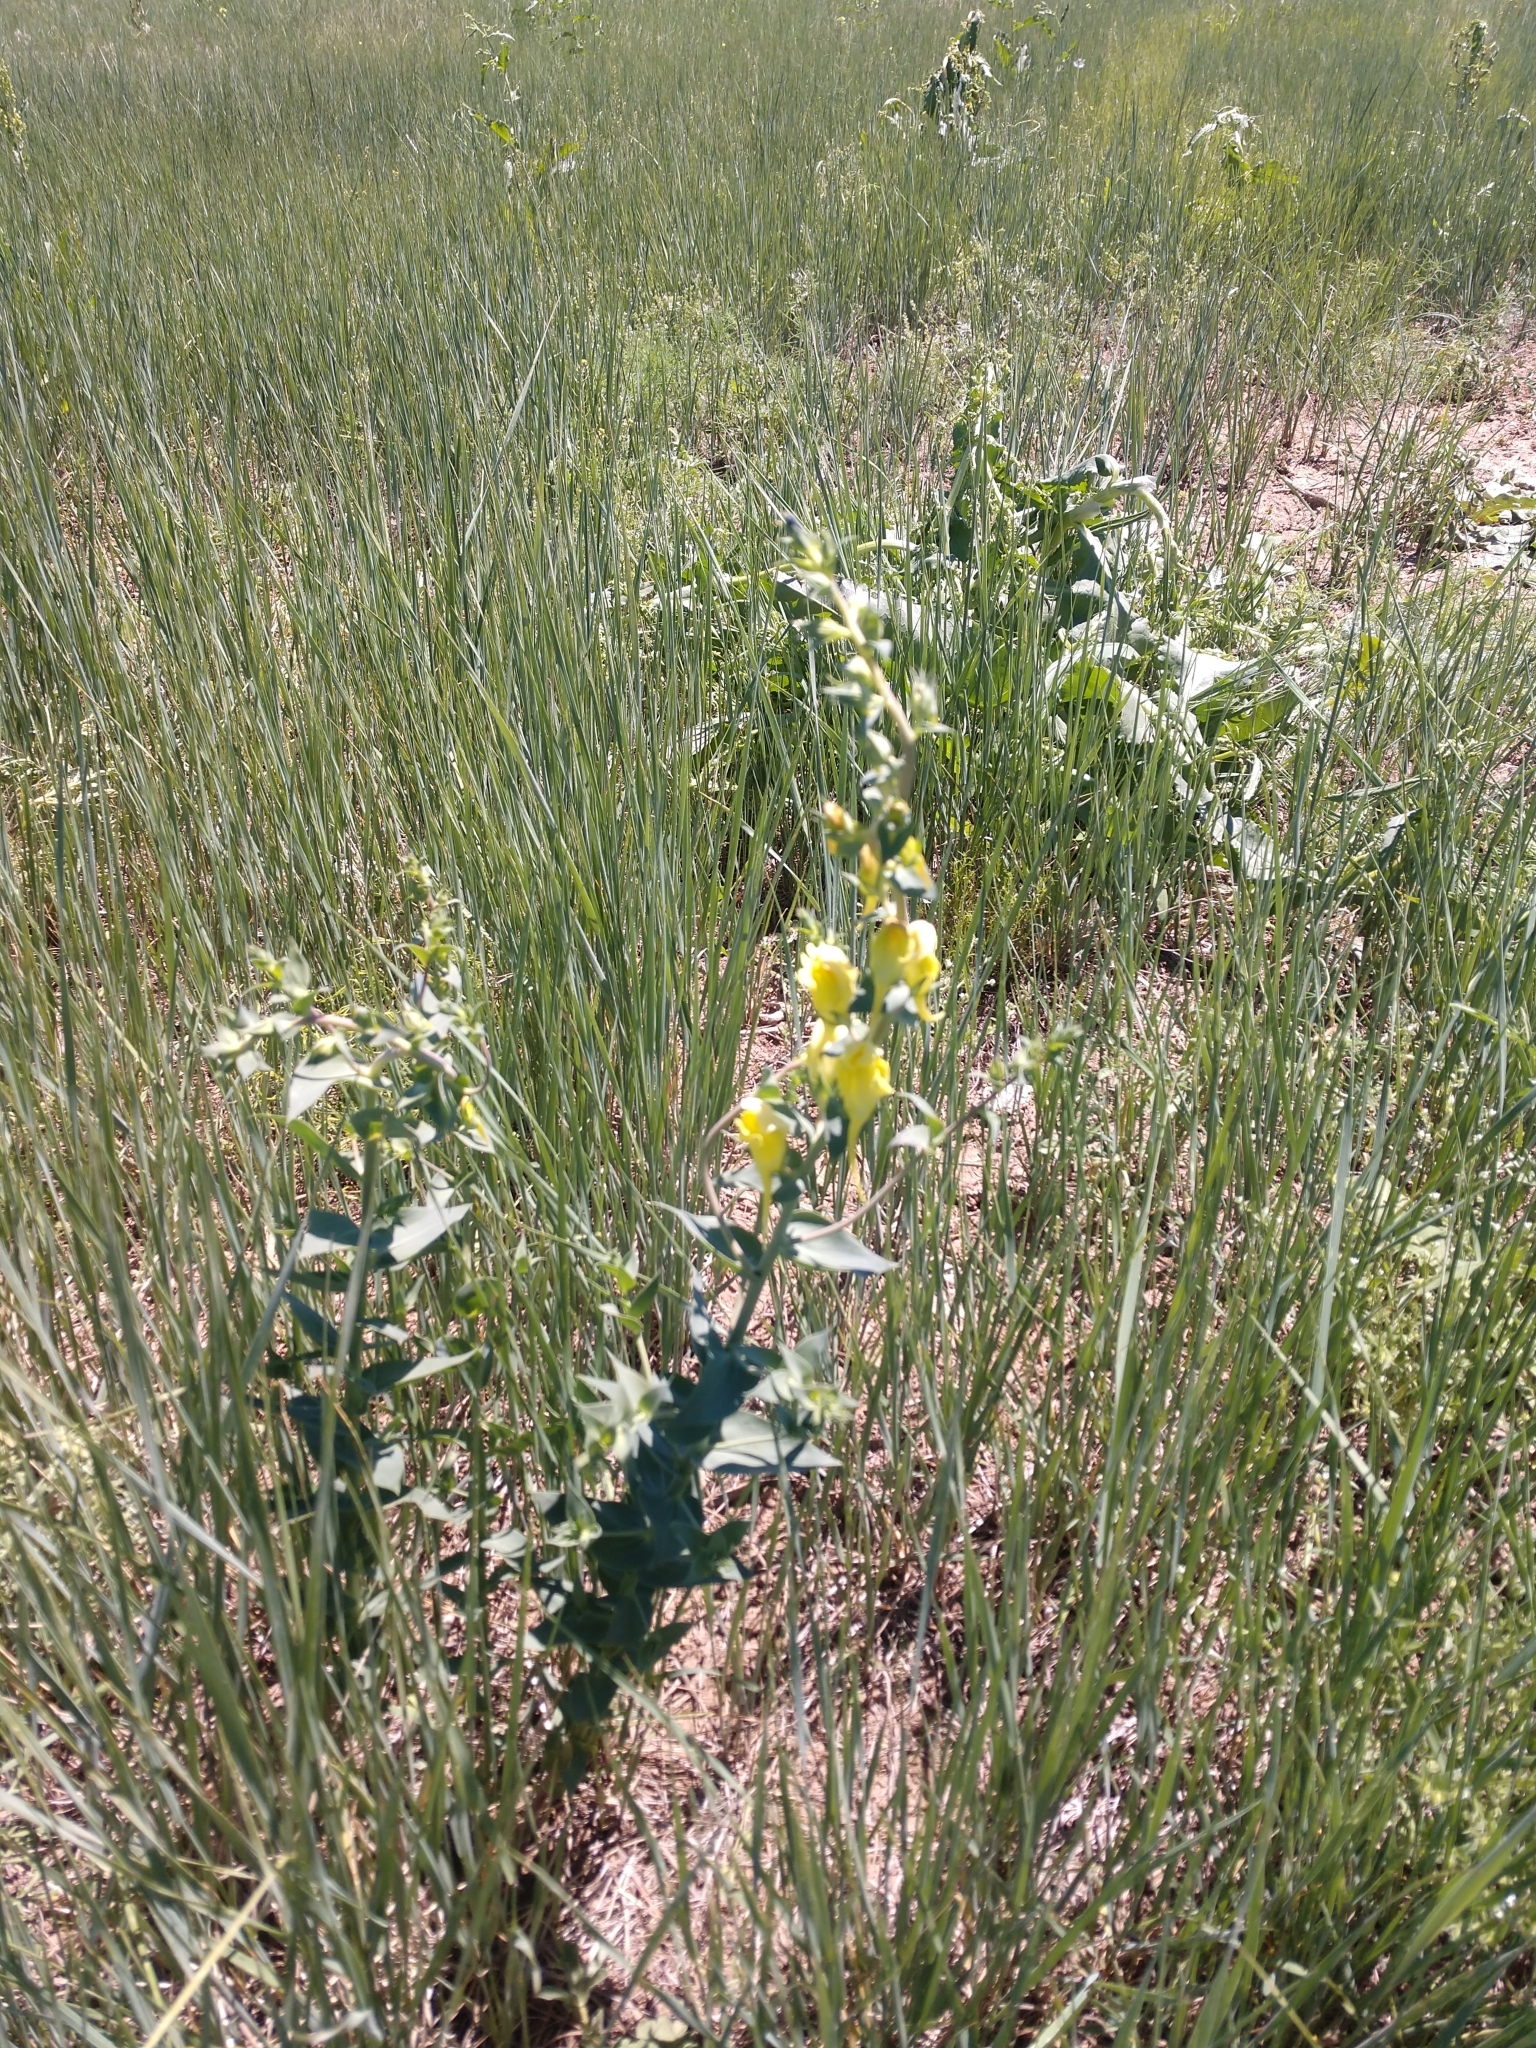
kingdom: Plantae
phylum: Tracheophyta
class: Magnoliopsida
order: Lamiales
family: Plantaginaceae
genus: Linaria
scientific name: Linaria dalmatica
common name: Dalmatian toadflax
